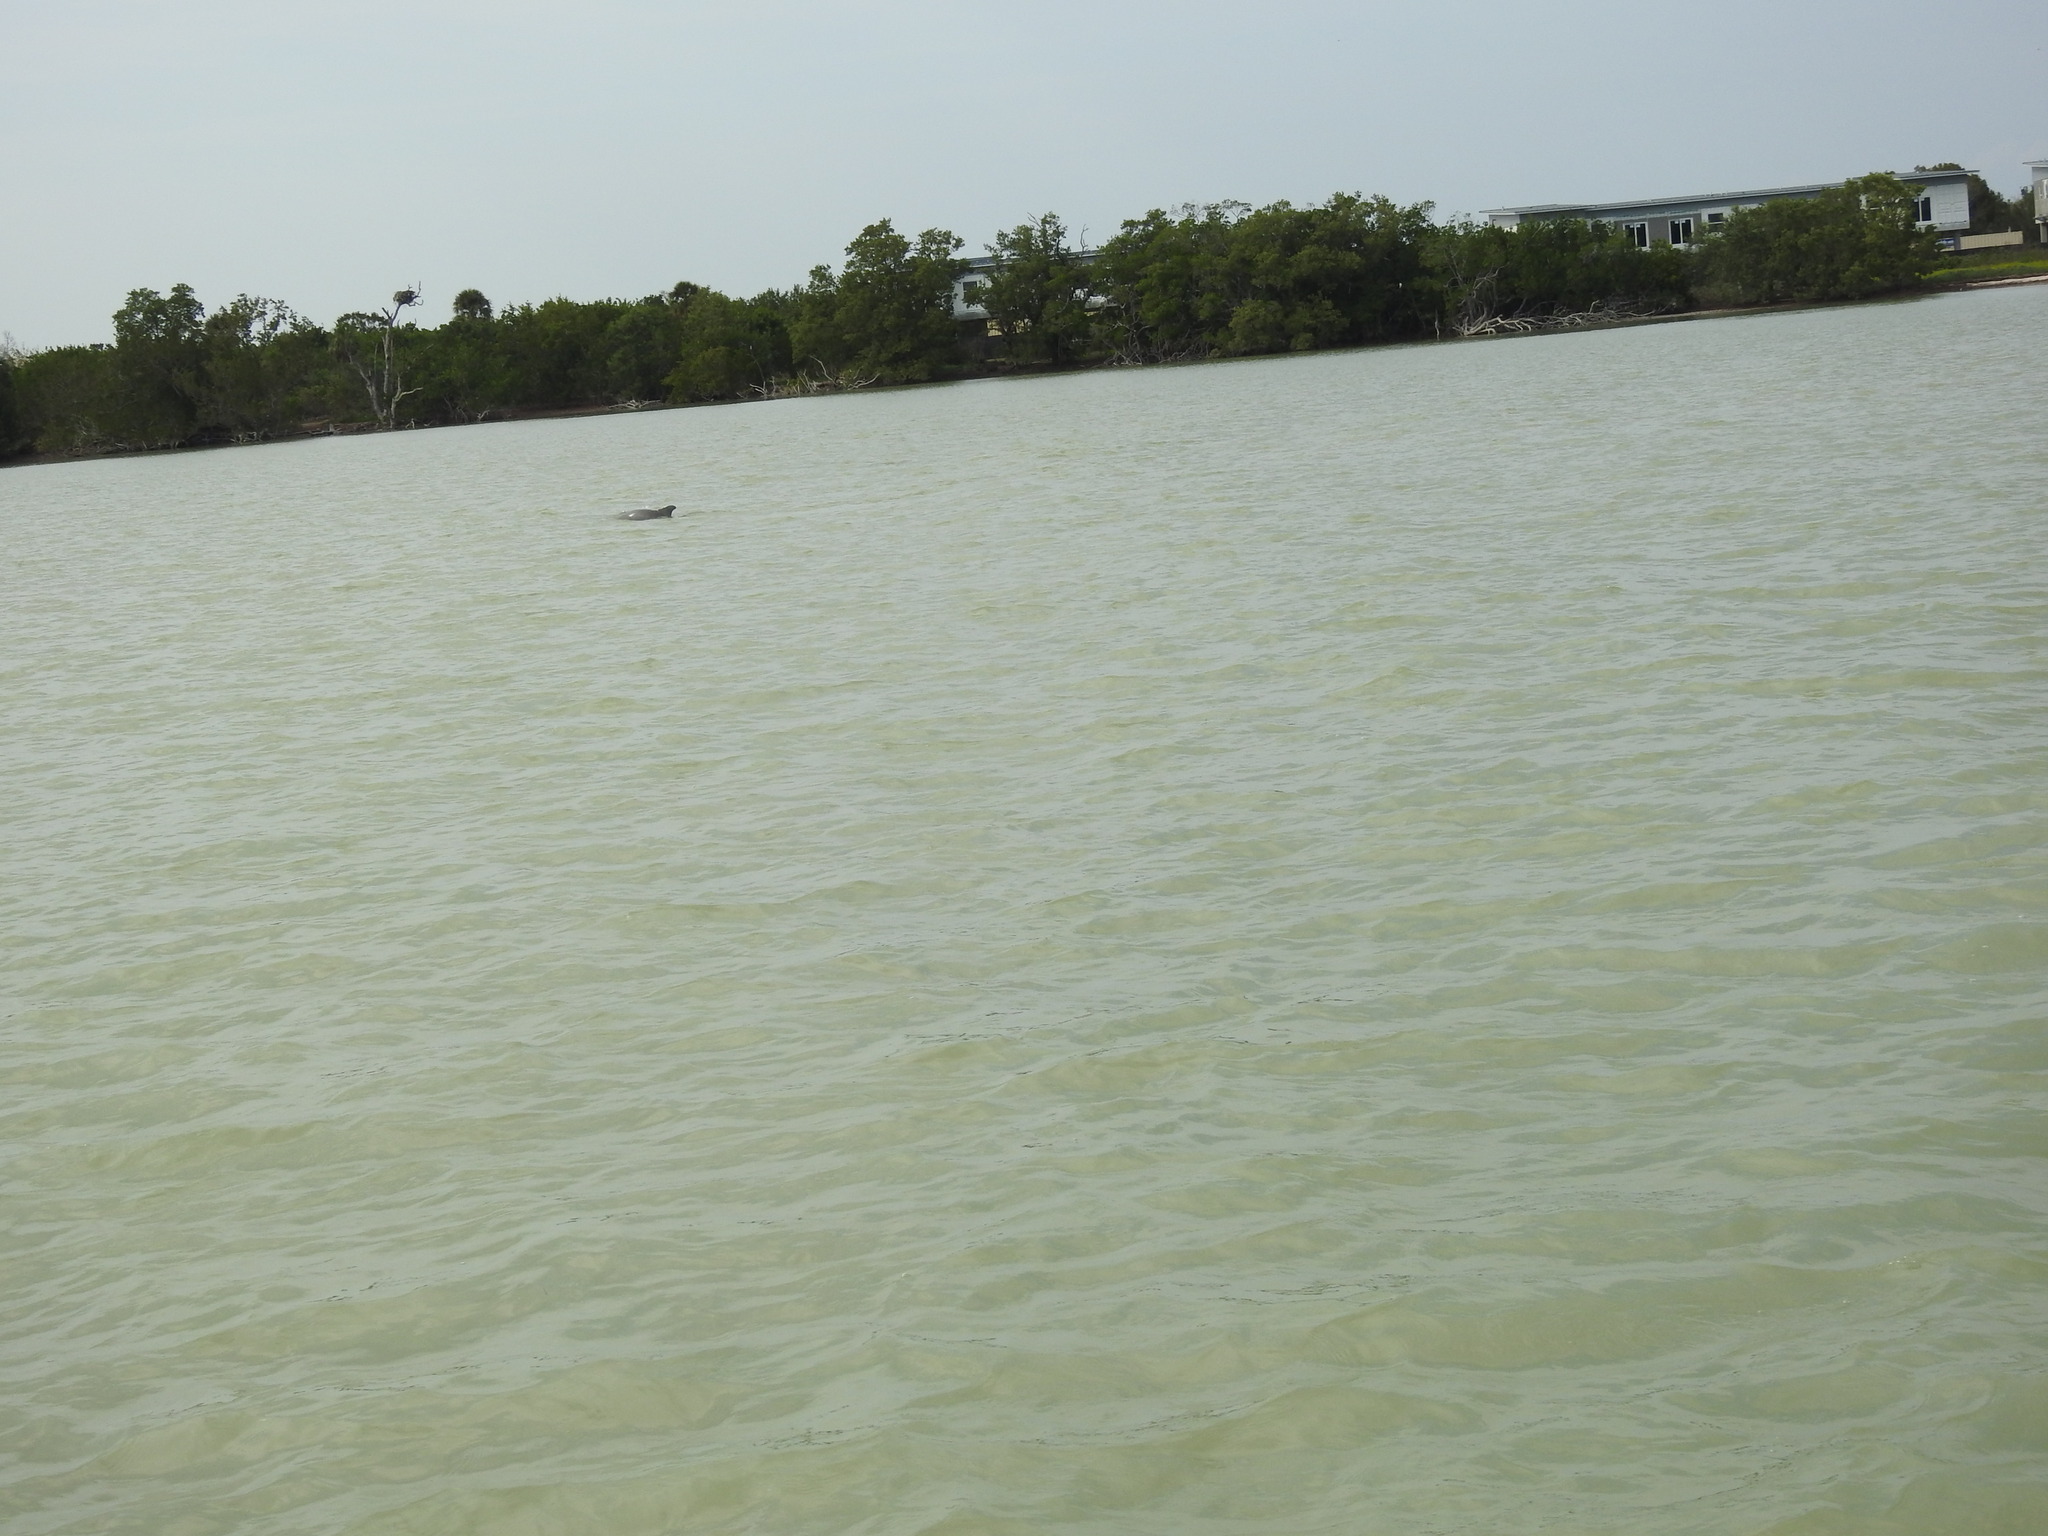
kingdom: Animalia
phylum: Chordata
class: Mammalia
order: Cetacea
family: Delphinidae
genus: Tursiops
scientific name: Tursiops truncatus
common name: Bottlenose dolphin
